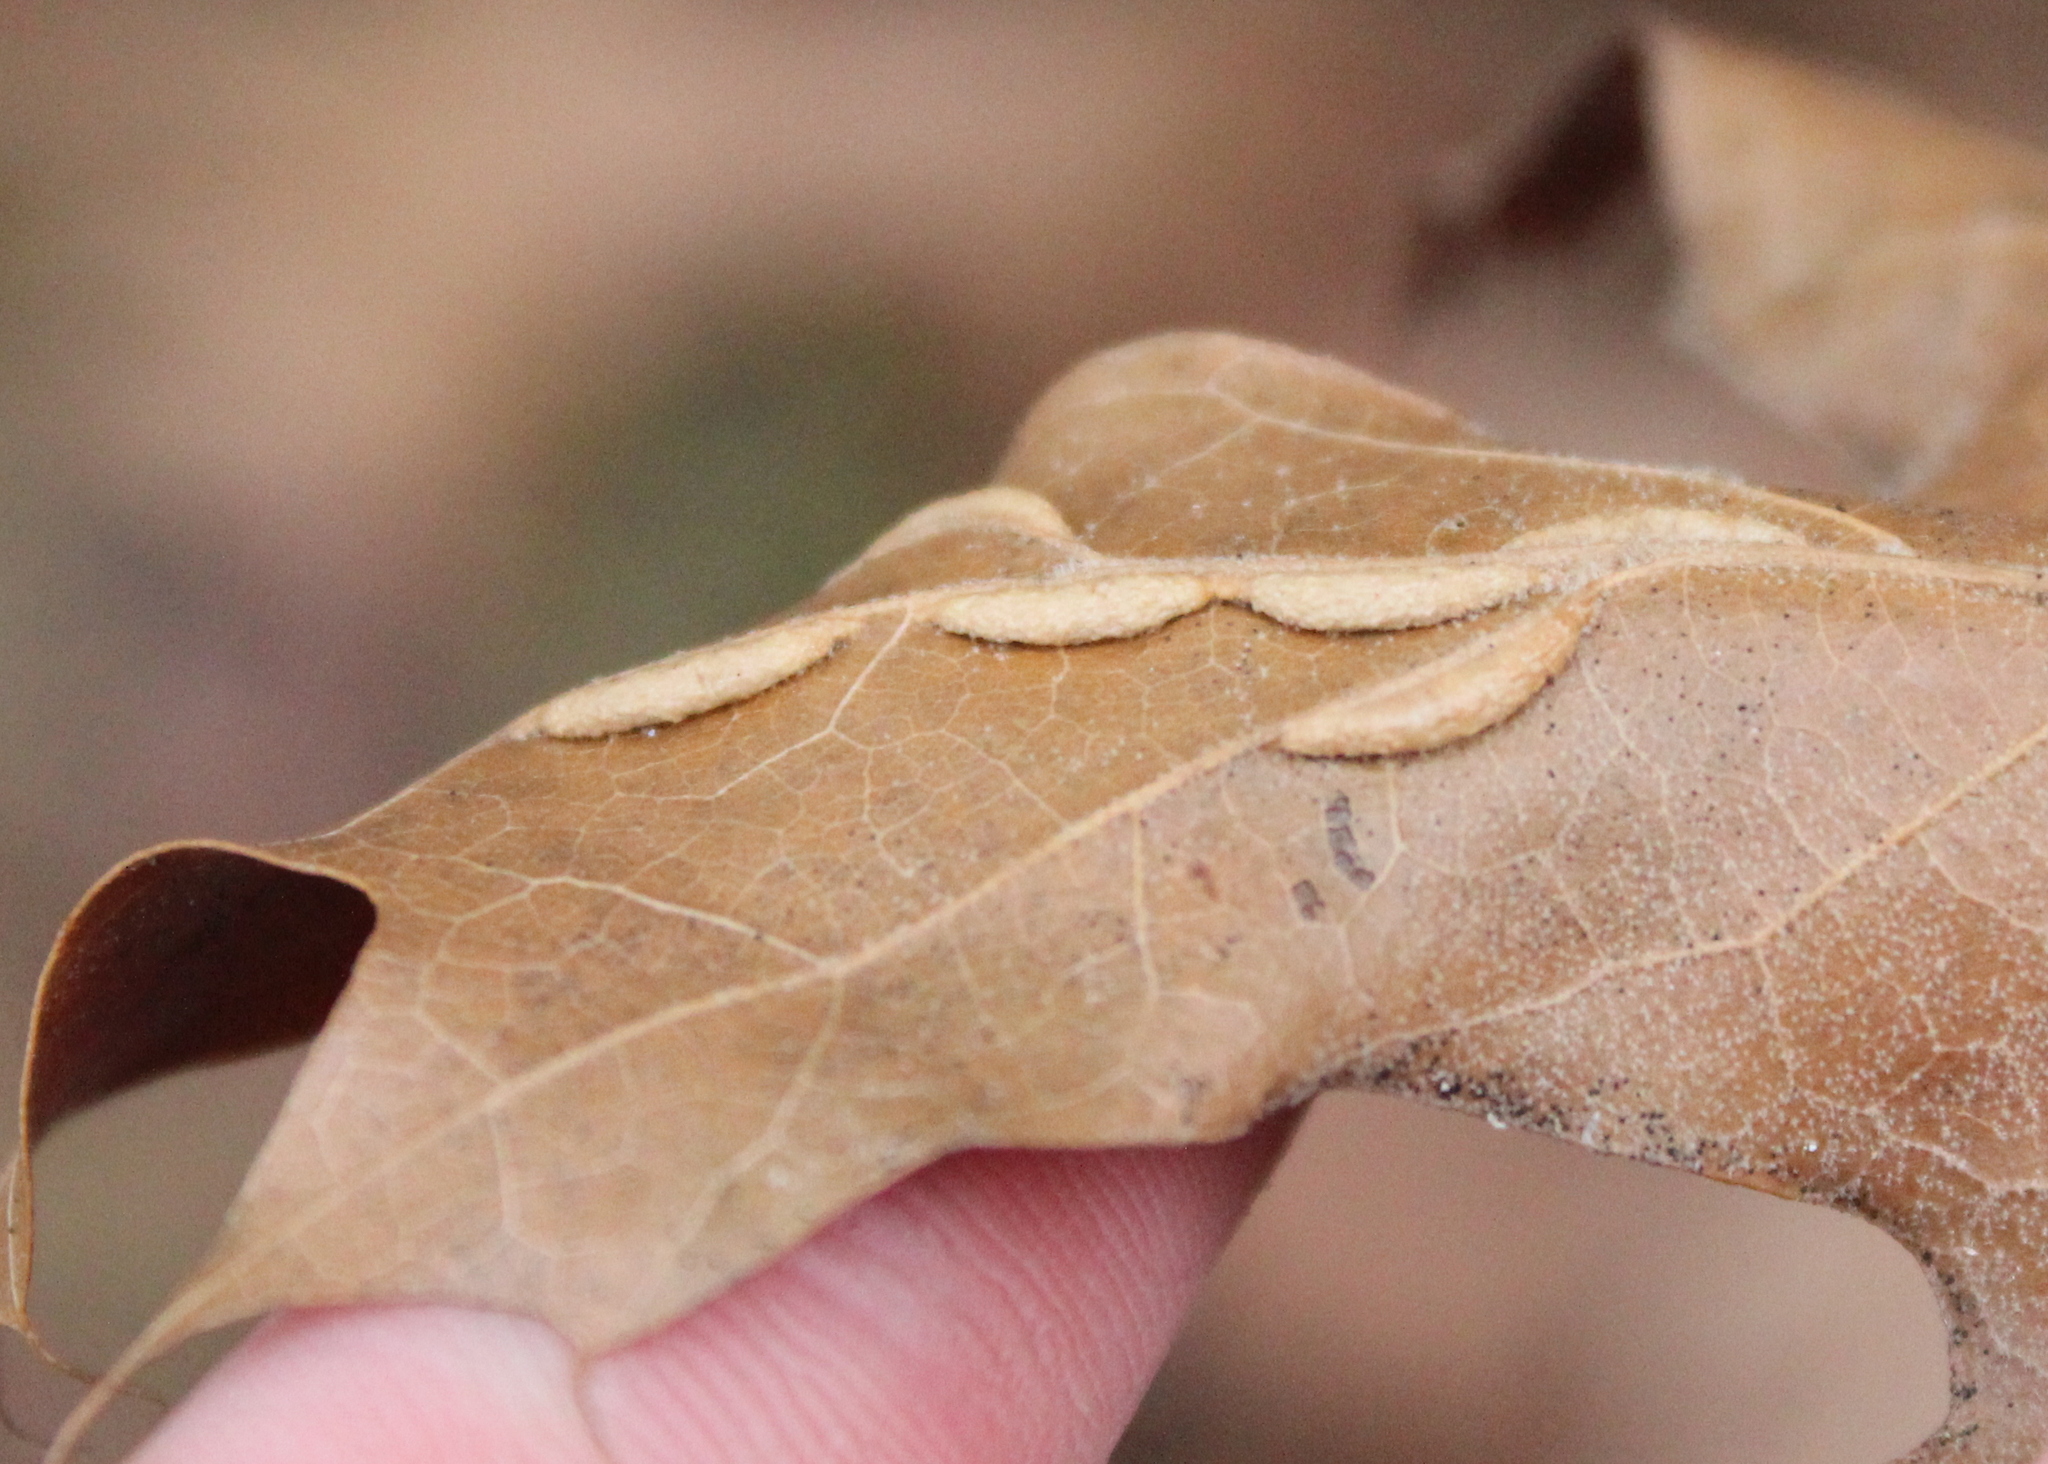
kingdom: Animalia
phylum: Arthropoda
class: Insecta
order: Diptera
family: Cecidomyiidae
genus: Macrodiplosis
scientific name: Macrodiplosis q-orucum
